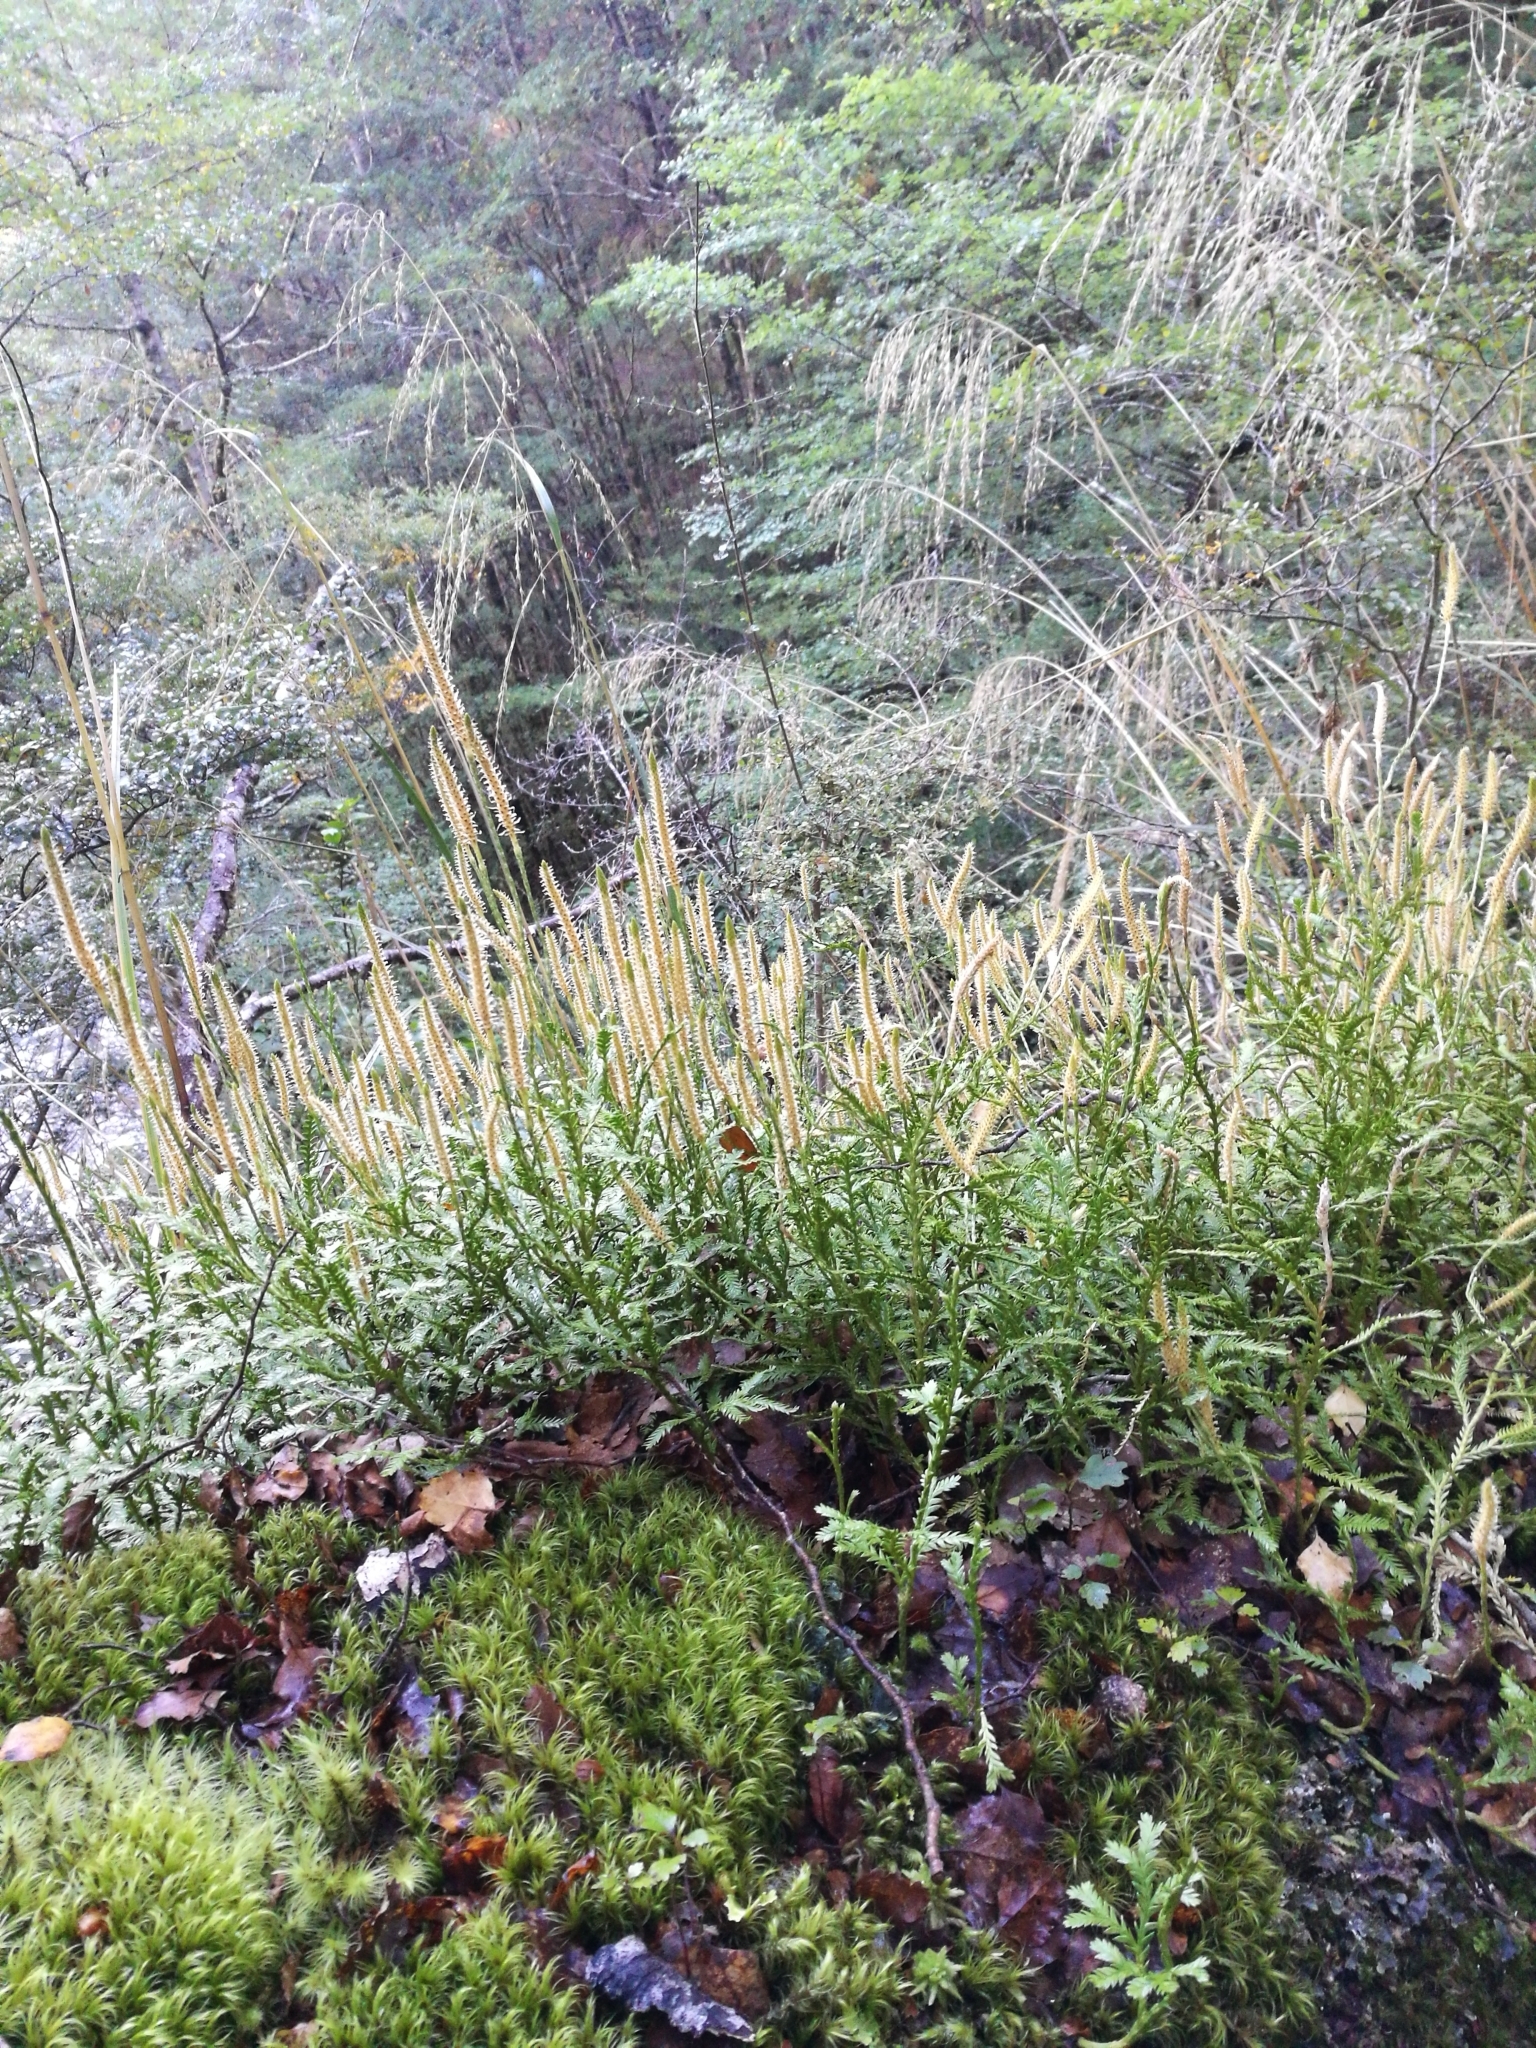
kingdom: Plantae
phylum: Tracheophyta
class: Lycopodiopsida
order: Lycopodiales
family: Lycopodiaceae
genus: Diphasium
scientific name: Diphasium scariosum
